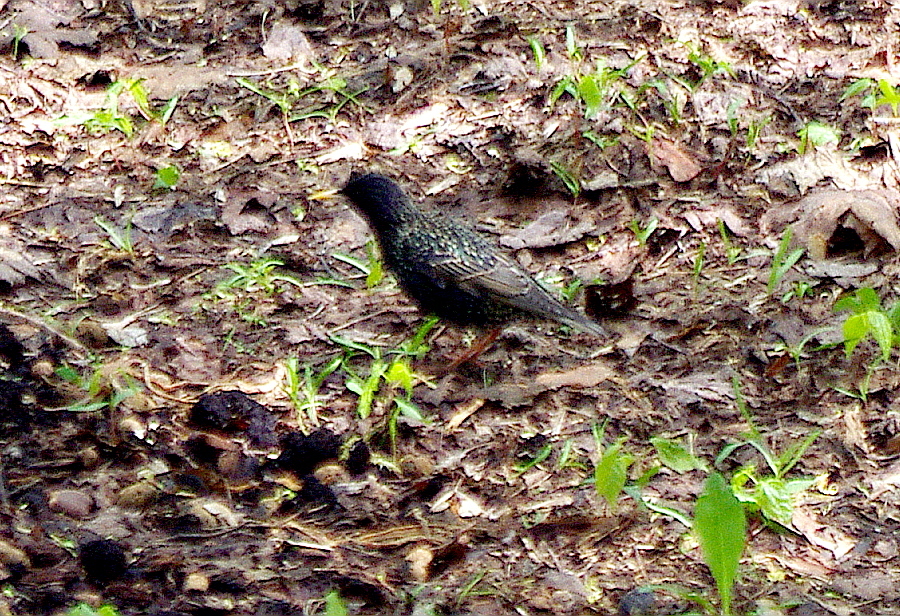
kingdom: Animalia
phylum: Chordata
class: Aves
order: Passeriformes
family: Sturnidae
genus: Sturnus
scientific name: Sturnus vulgaris
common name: Common starling
